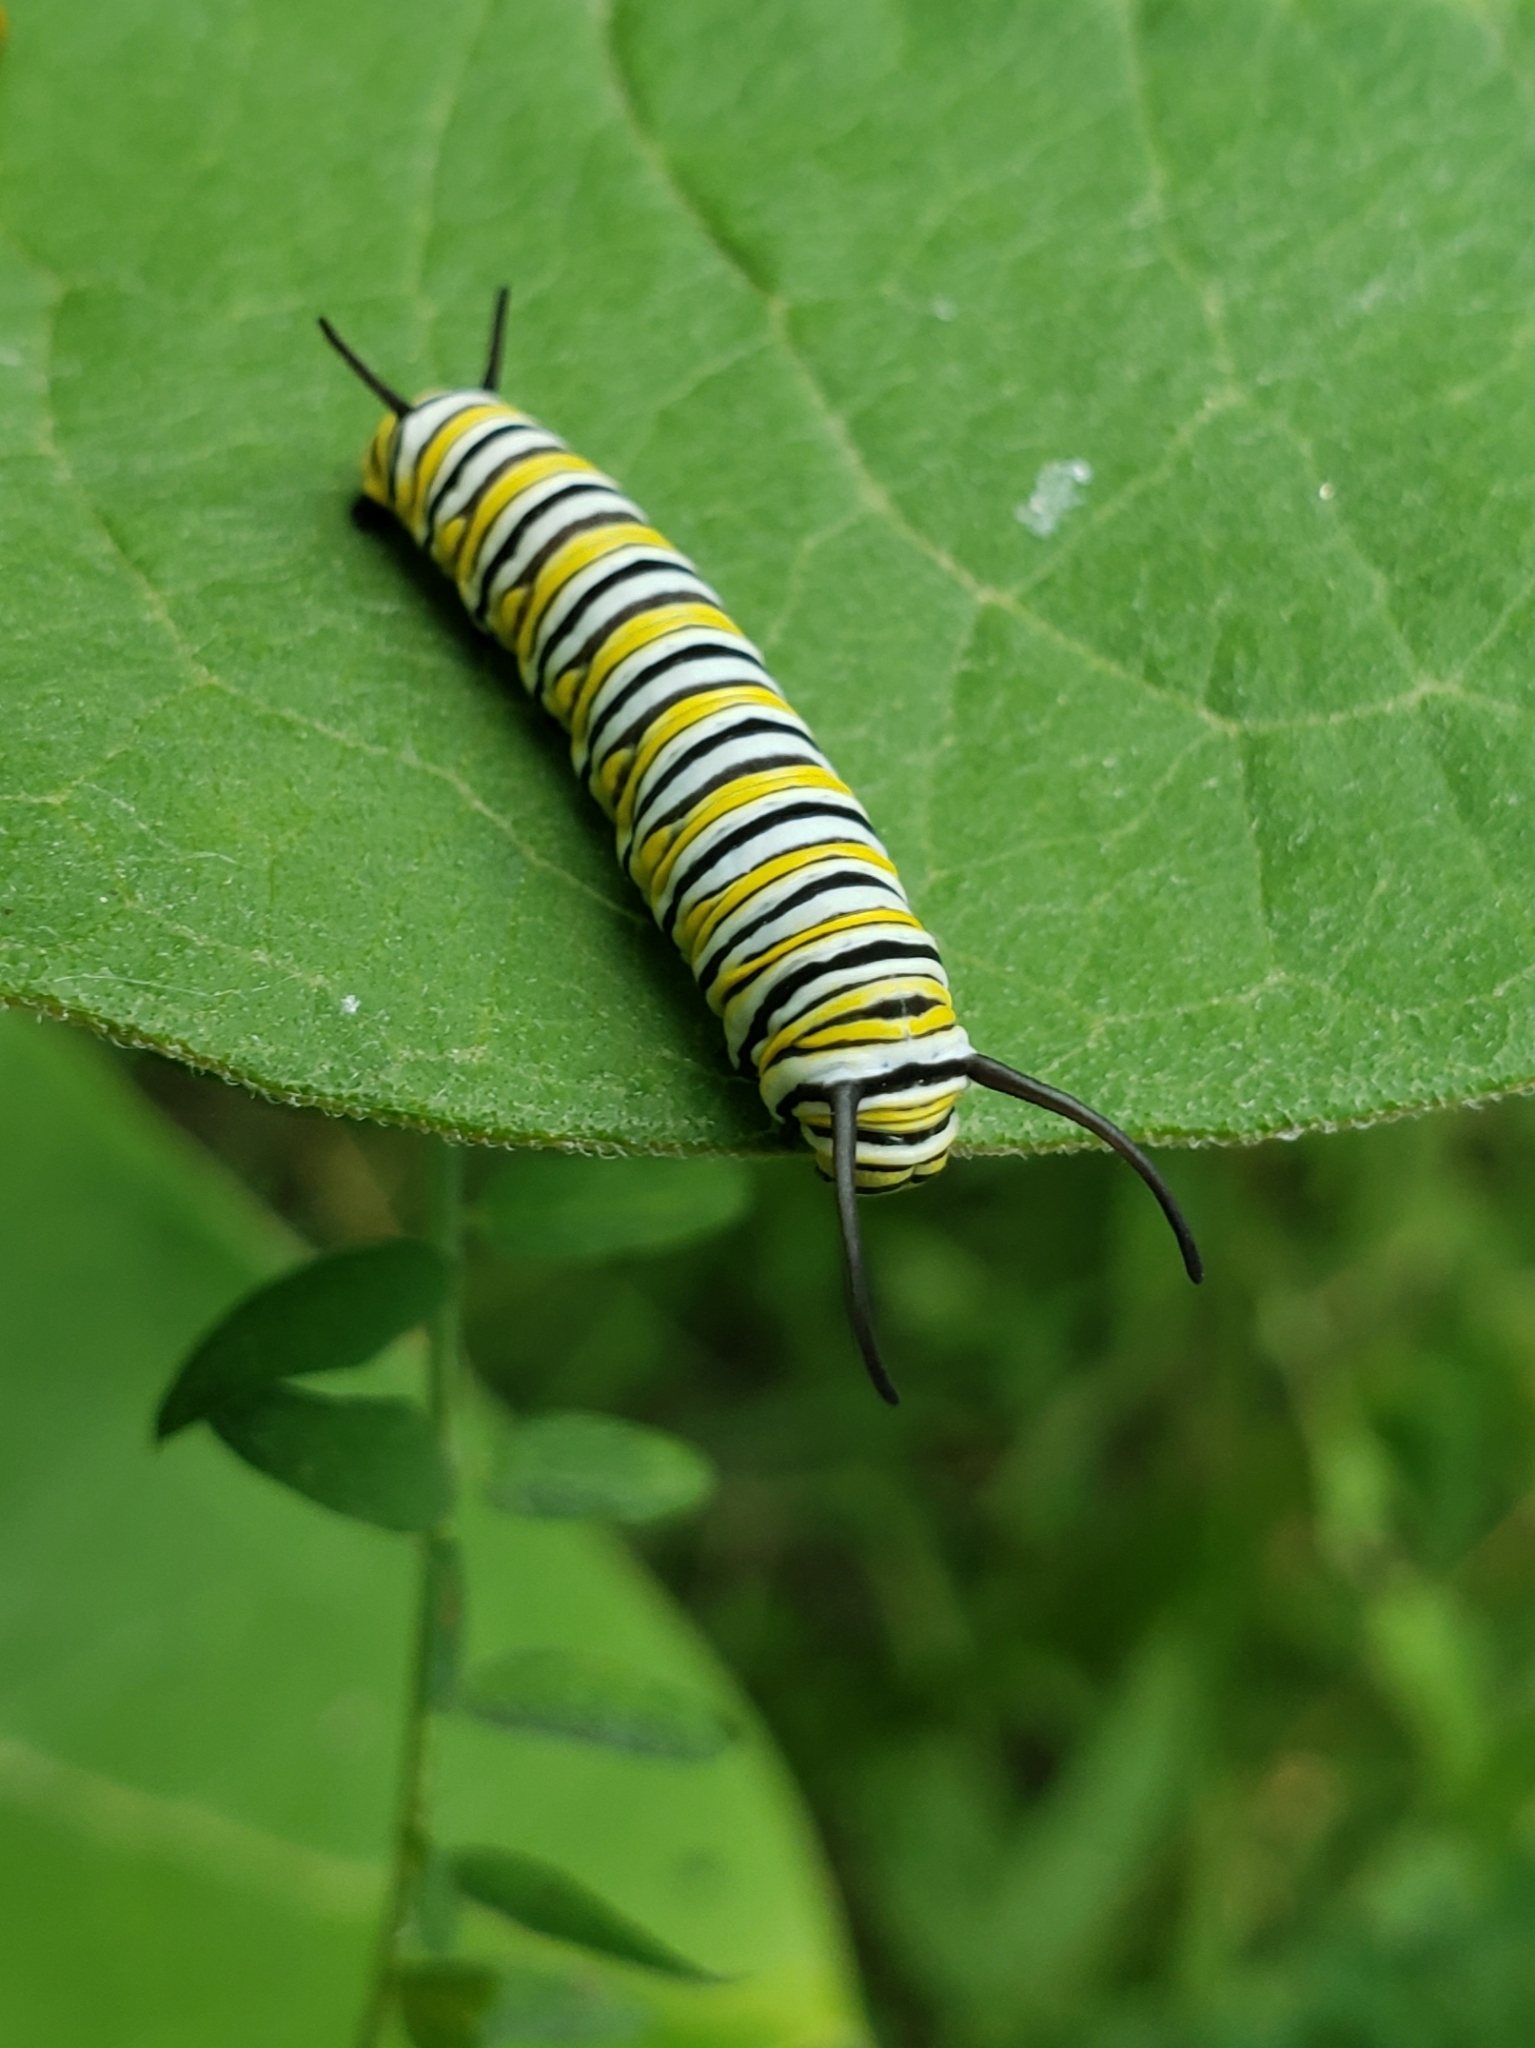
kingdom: Animalia
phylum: Arthropoda
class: Insecta
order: Lepidoptera
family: Nymphalidae
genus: Danaus
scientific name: Danaus plexippus
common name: Monarch
